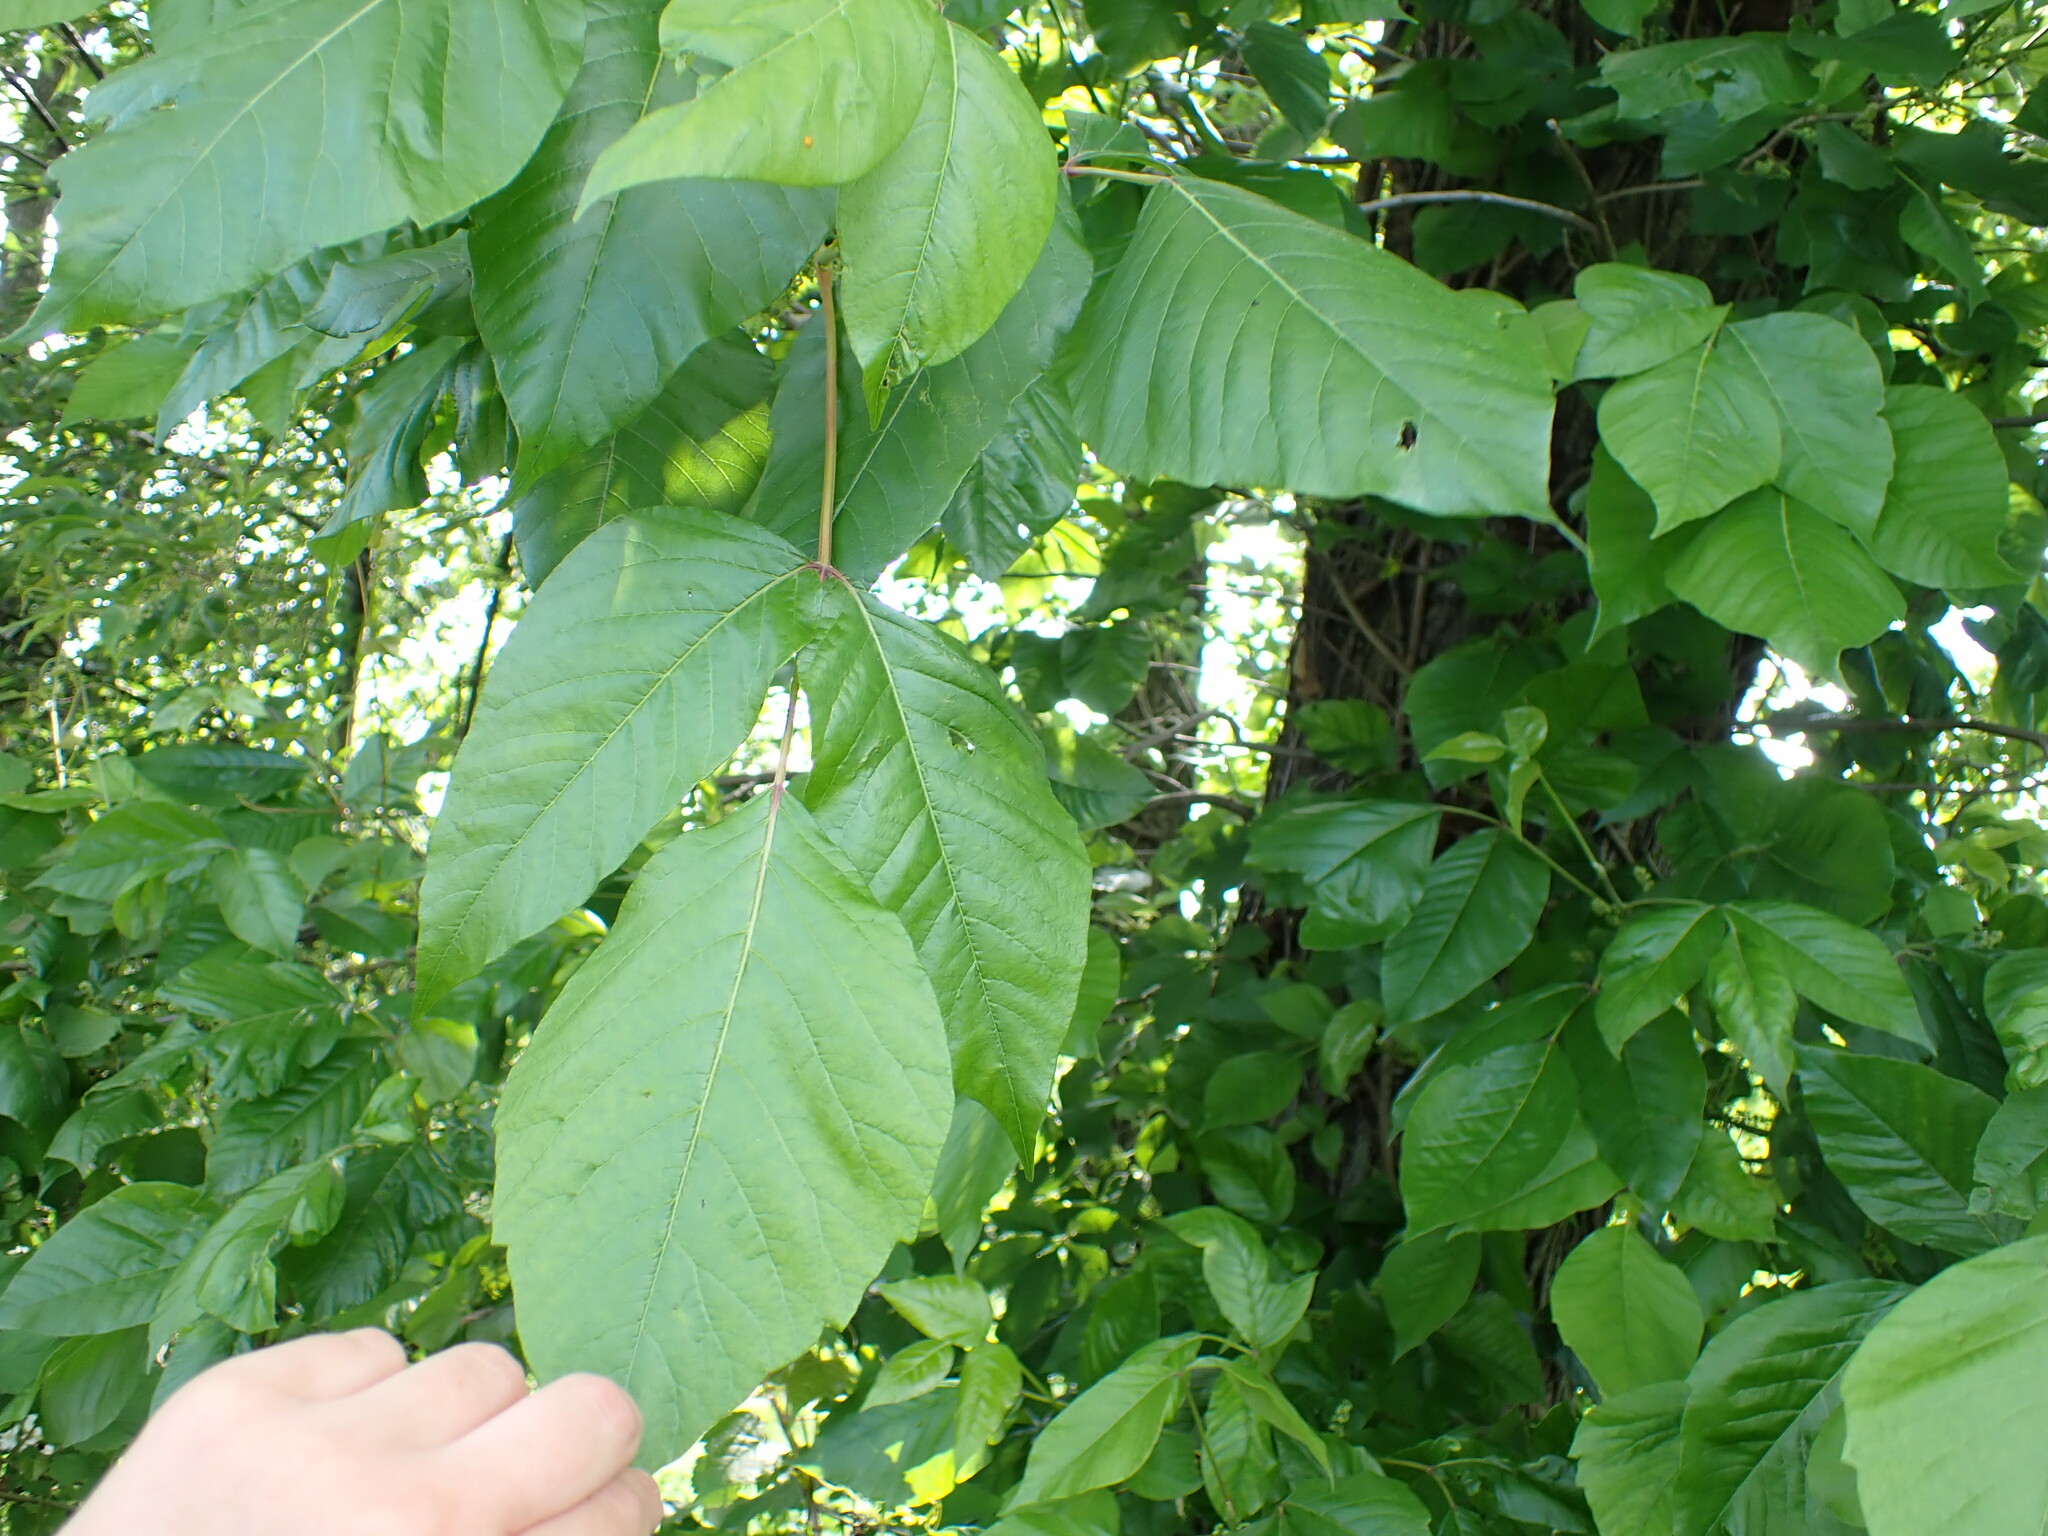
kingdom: Plantae
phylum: Tracheophyta
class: Magnoliopsida
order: Sapindales
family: Anacardiaceae
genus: Toxicodendron
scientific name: Toxicodendron radicans
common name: Poison ivy
